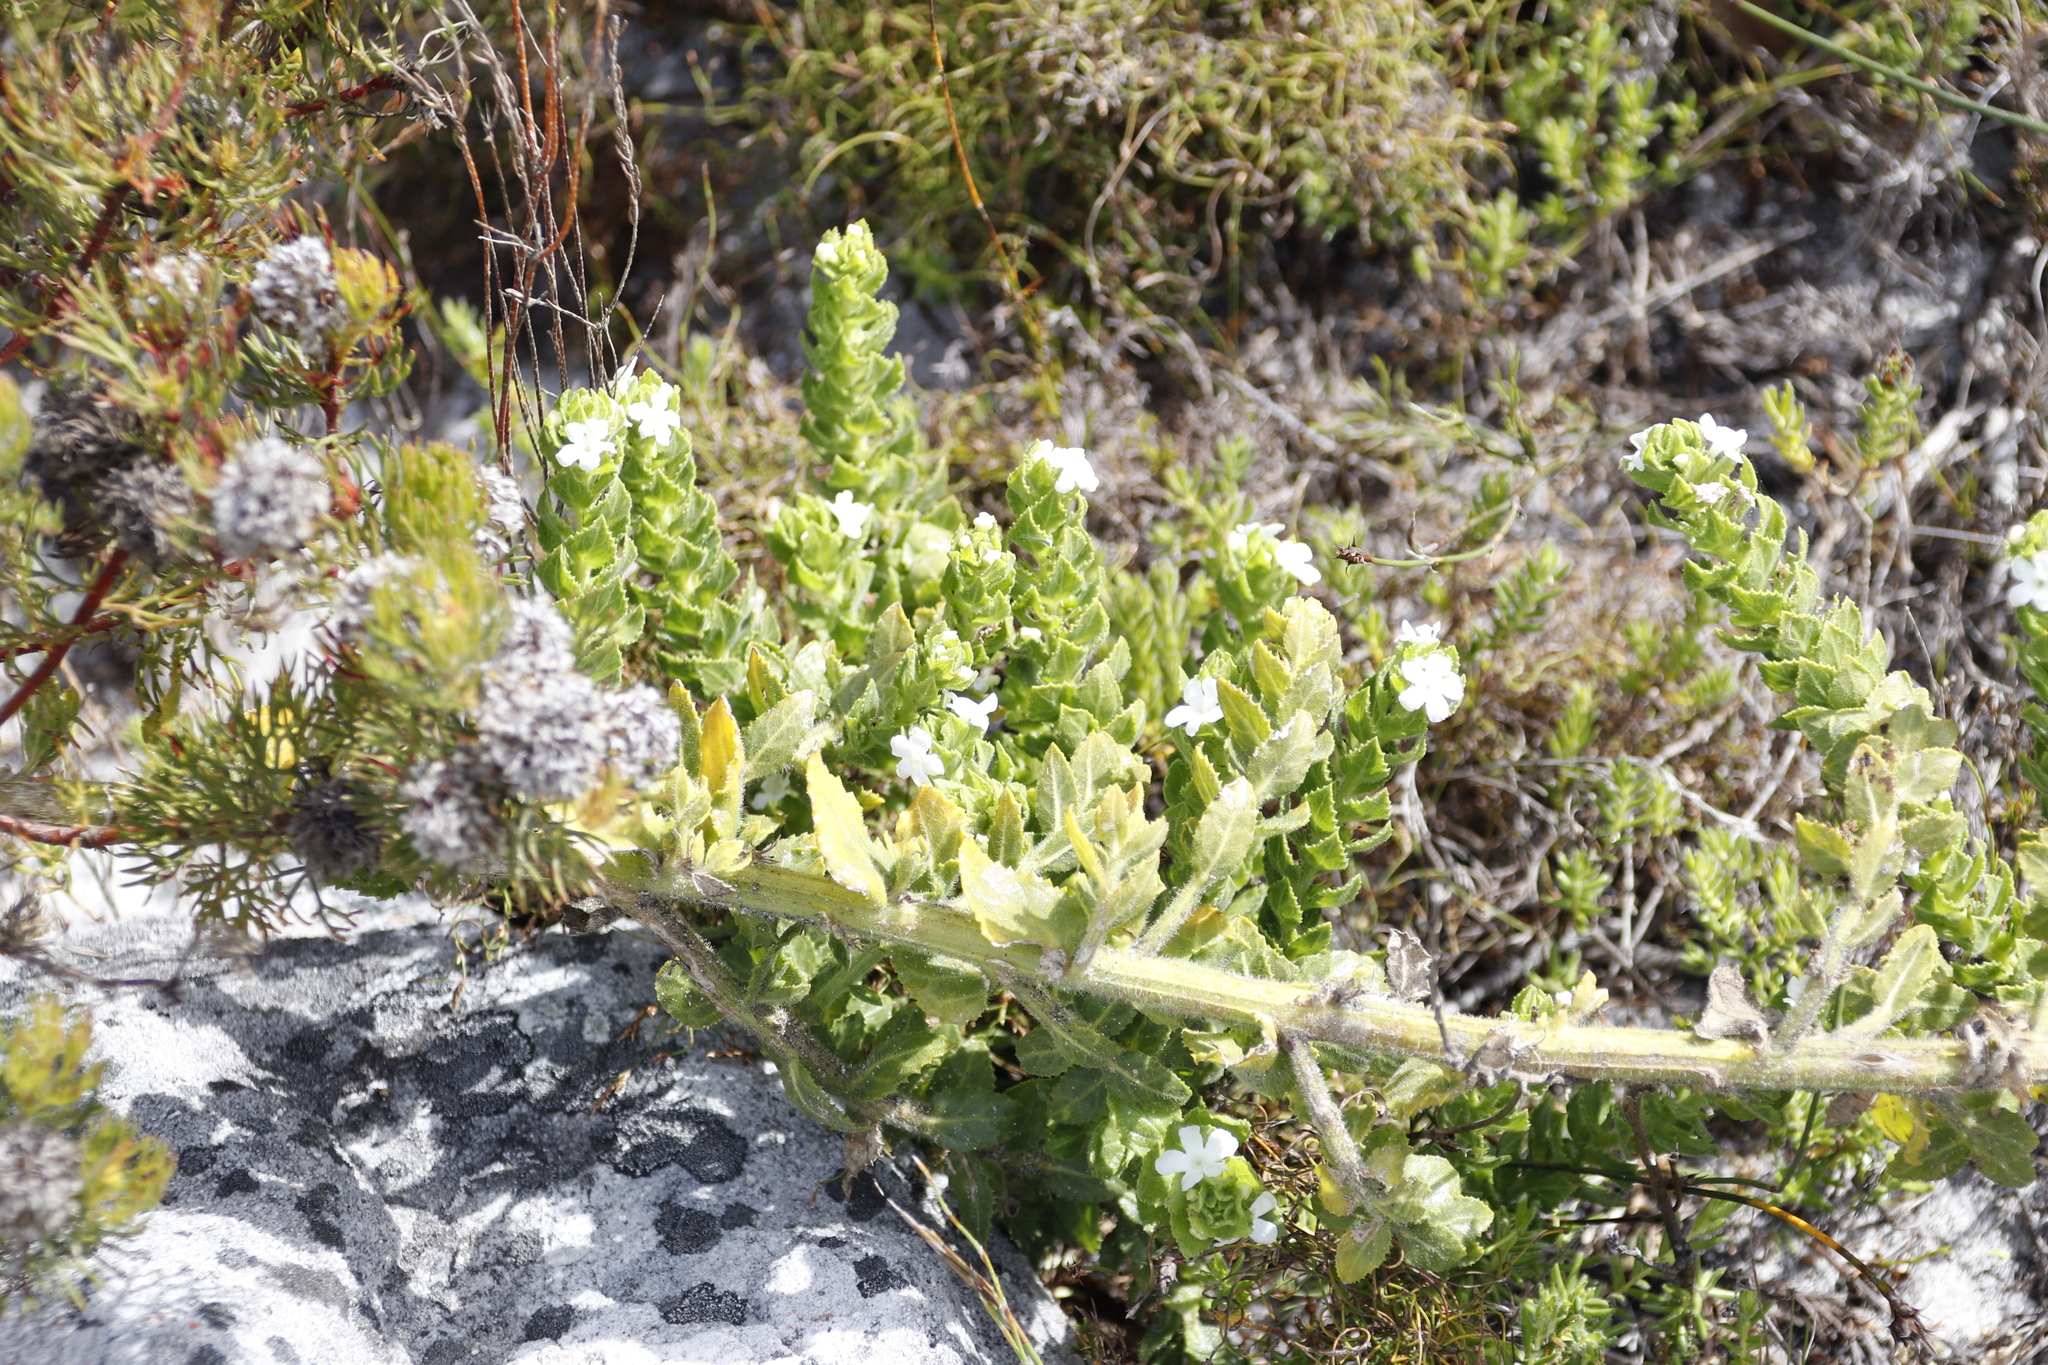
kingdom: Plantae
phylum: Tracheophyta
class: Magnoliopsida
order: Lamiales
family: Scrophulariaceae
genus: Oftia
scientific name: Oftia africana
